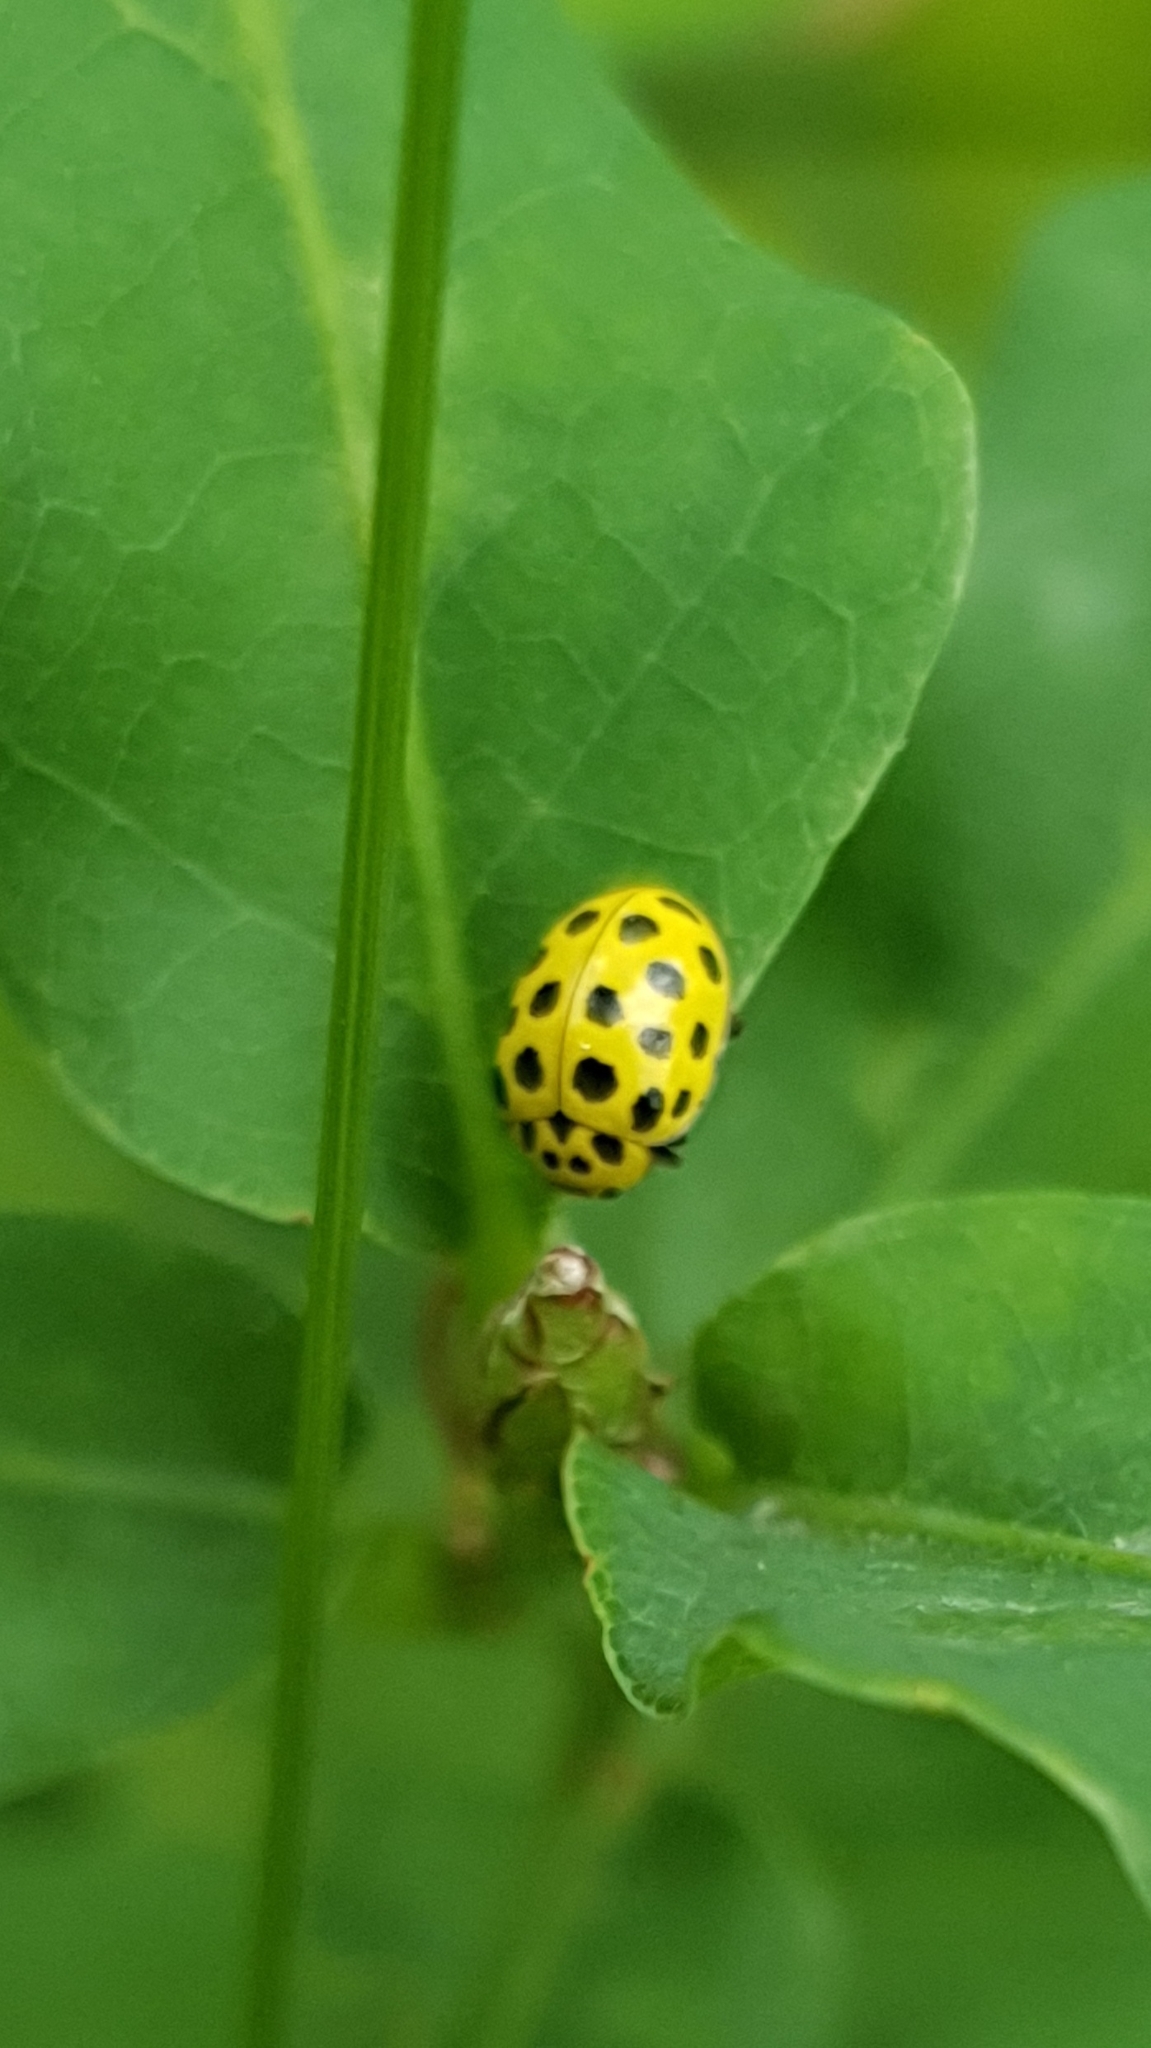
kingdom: Animalia
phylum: Arthropoda
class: Insecta
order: Coleoptera
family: Coccinellidae
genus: Psyllobora
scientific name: Psyllobora vigintiduopunctata
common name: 22-spot ladybird
